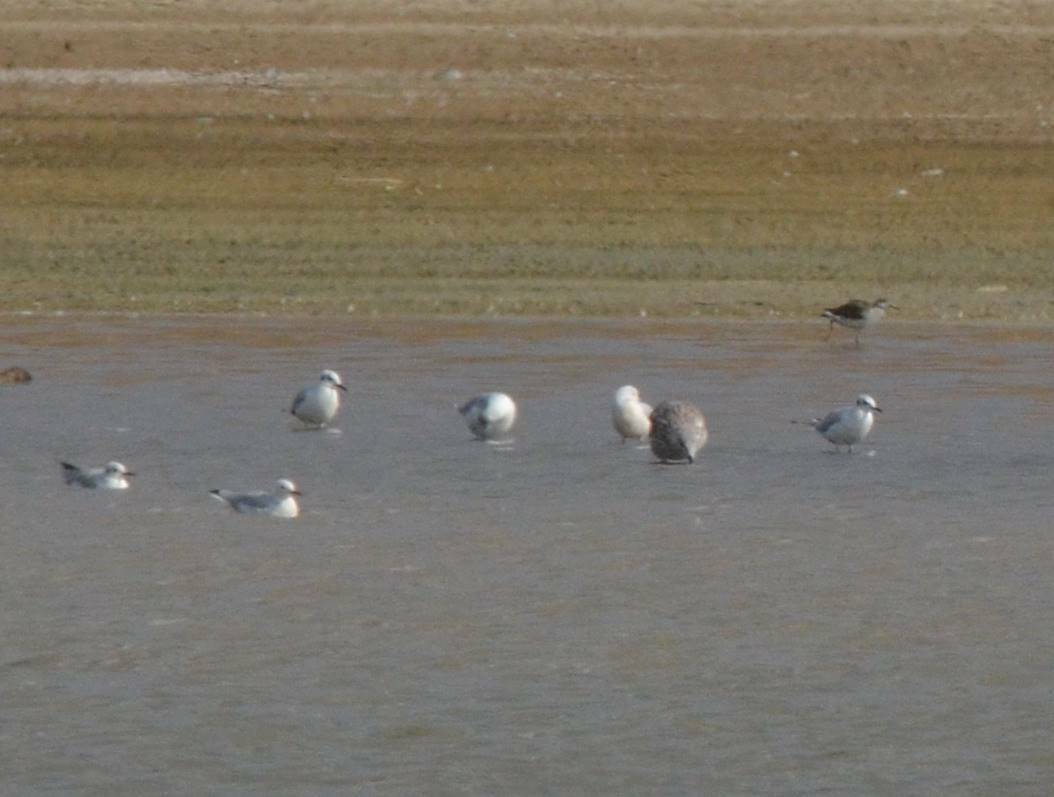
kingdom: Animalia
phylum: Chordata
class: Aves
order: Charadriiformes
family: Laridae
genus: Chroicocephalus
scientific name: Chroicocephalus ridibundus
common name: Black-headed gull
